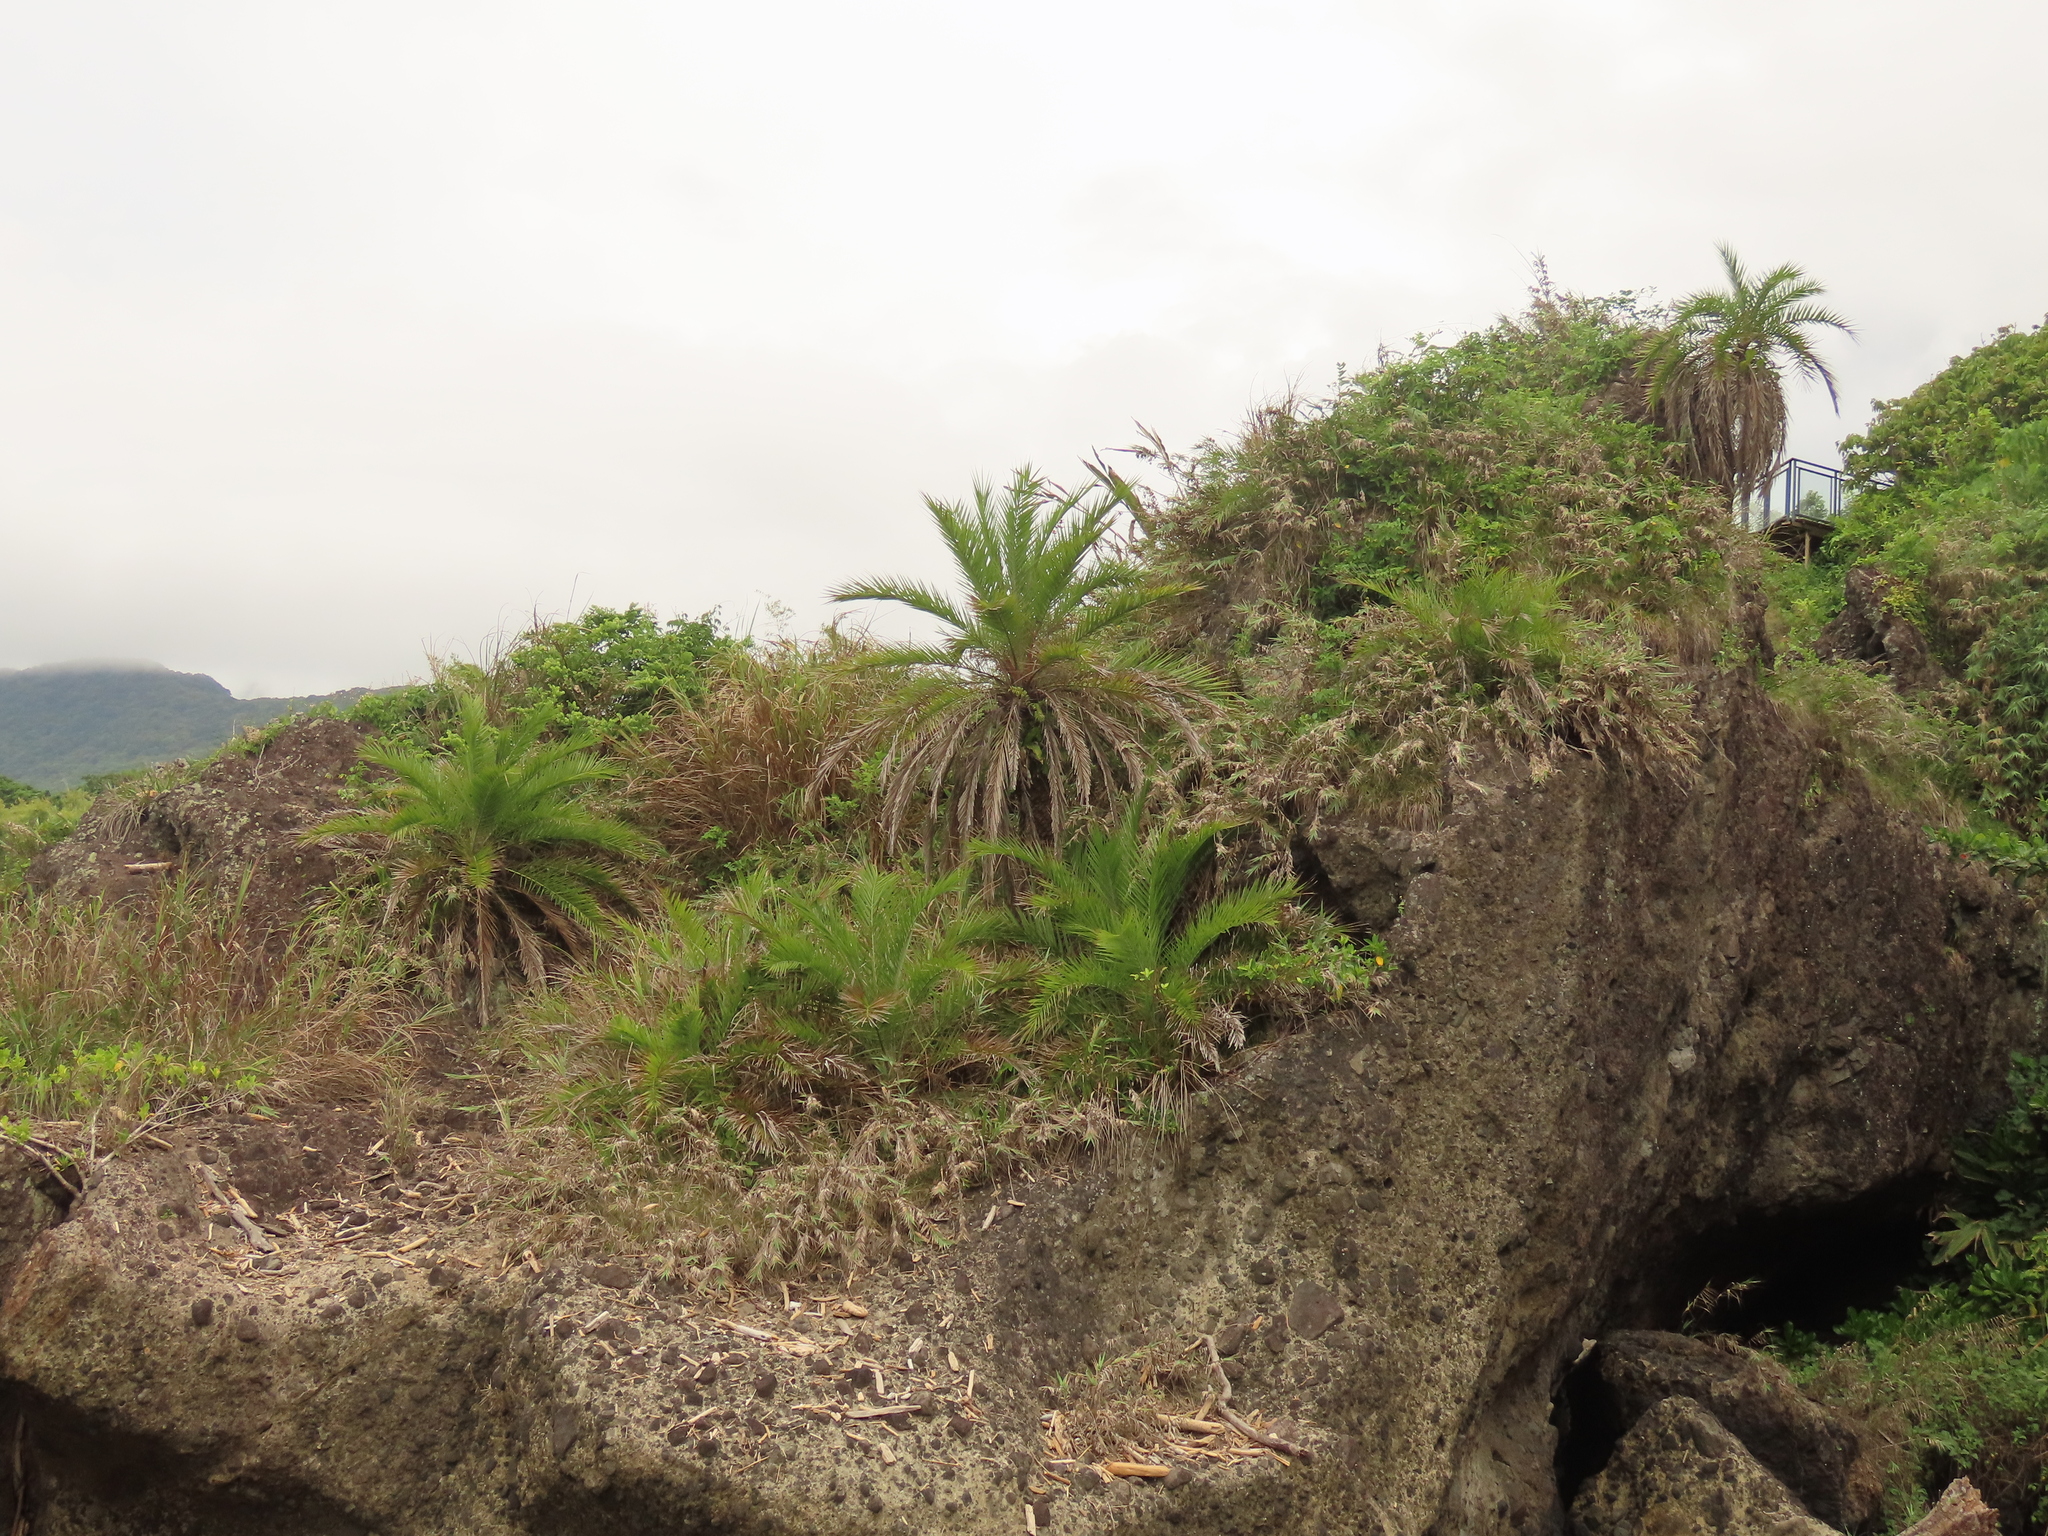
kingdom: Plantae
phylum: Tracheophyta
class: Polypodiopsida
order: Polypodiales
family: Nephrolepidaceae
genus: Nephrolepis
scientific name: Nephrolepis biserrata
